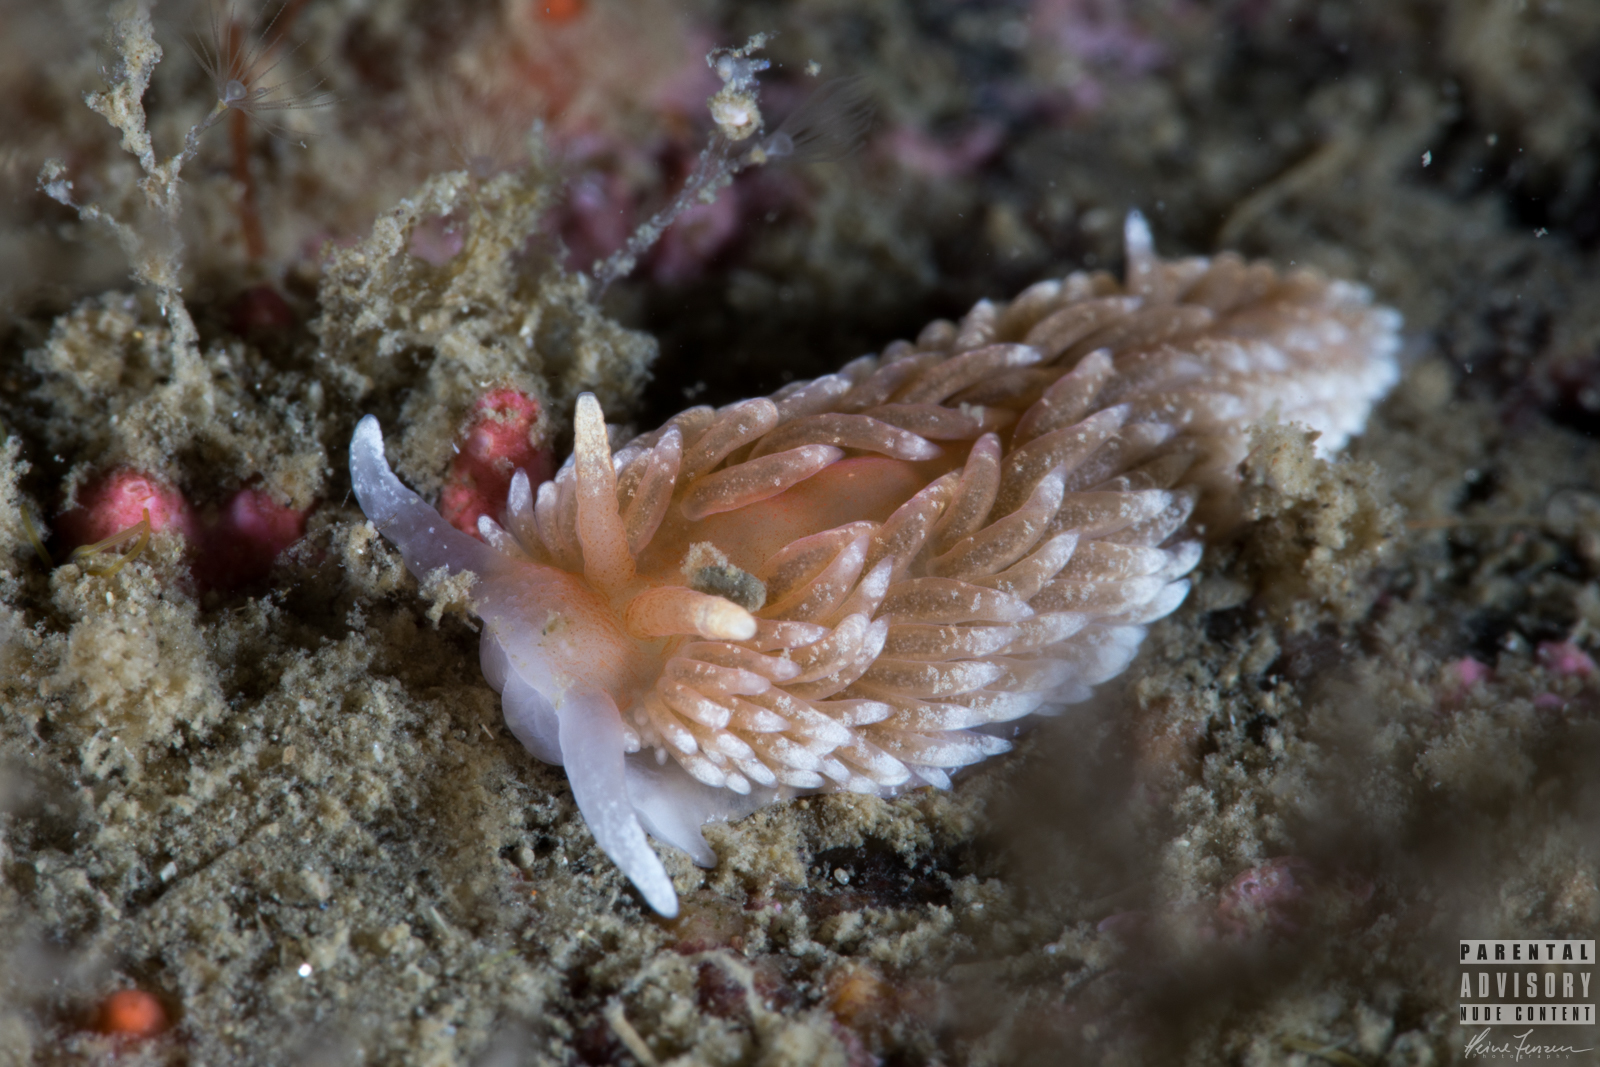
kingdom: Animalia
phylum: Mollusca
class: Gastropoda
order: Nudibranchia
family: Aeolidiidae
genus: Aeolidiella
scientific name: Aeolidiella glauca
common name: Orange-brown aeolid
